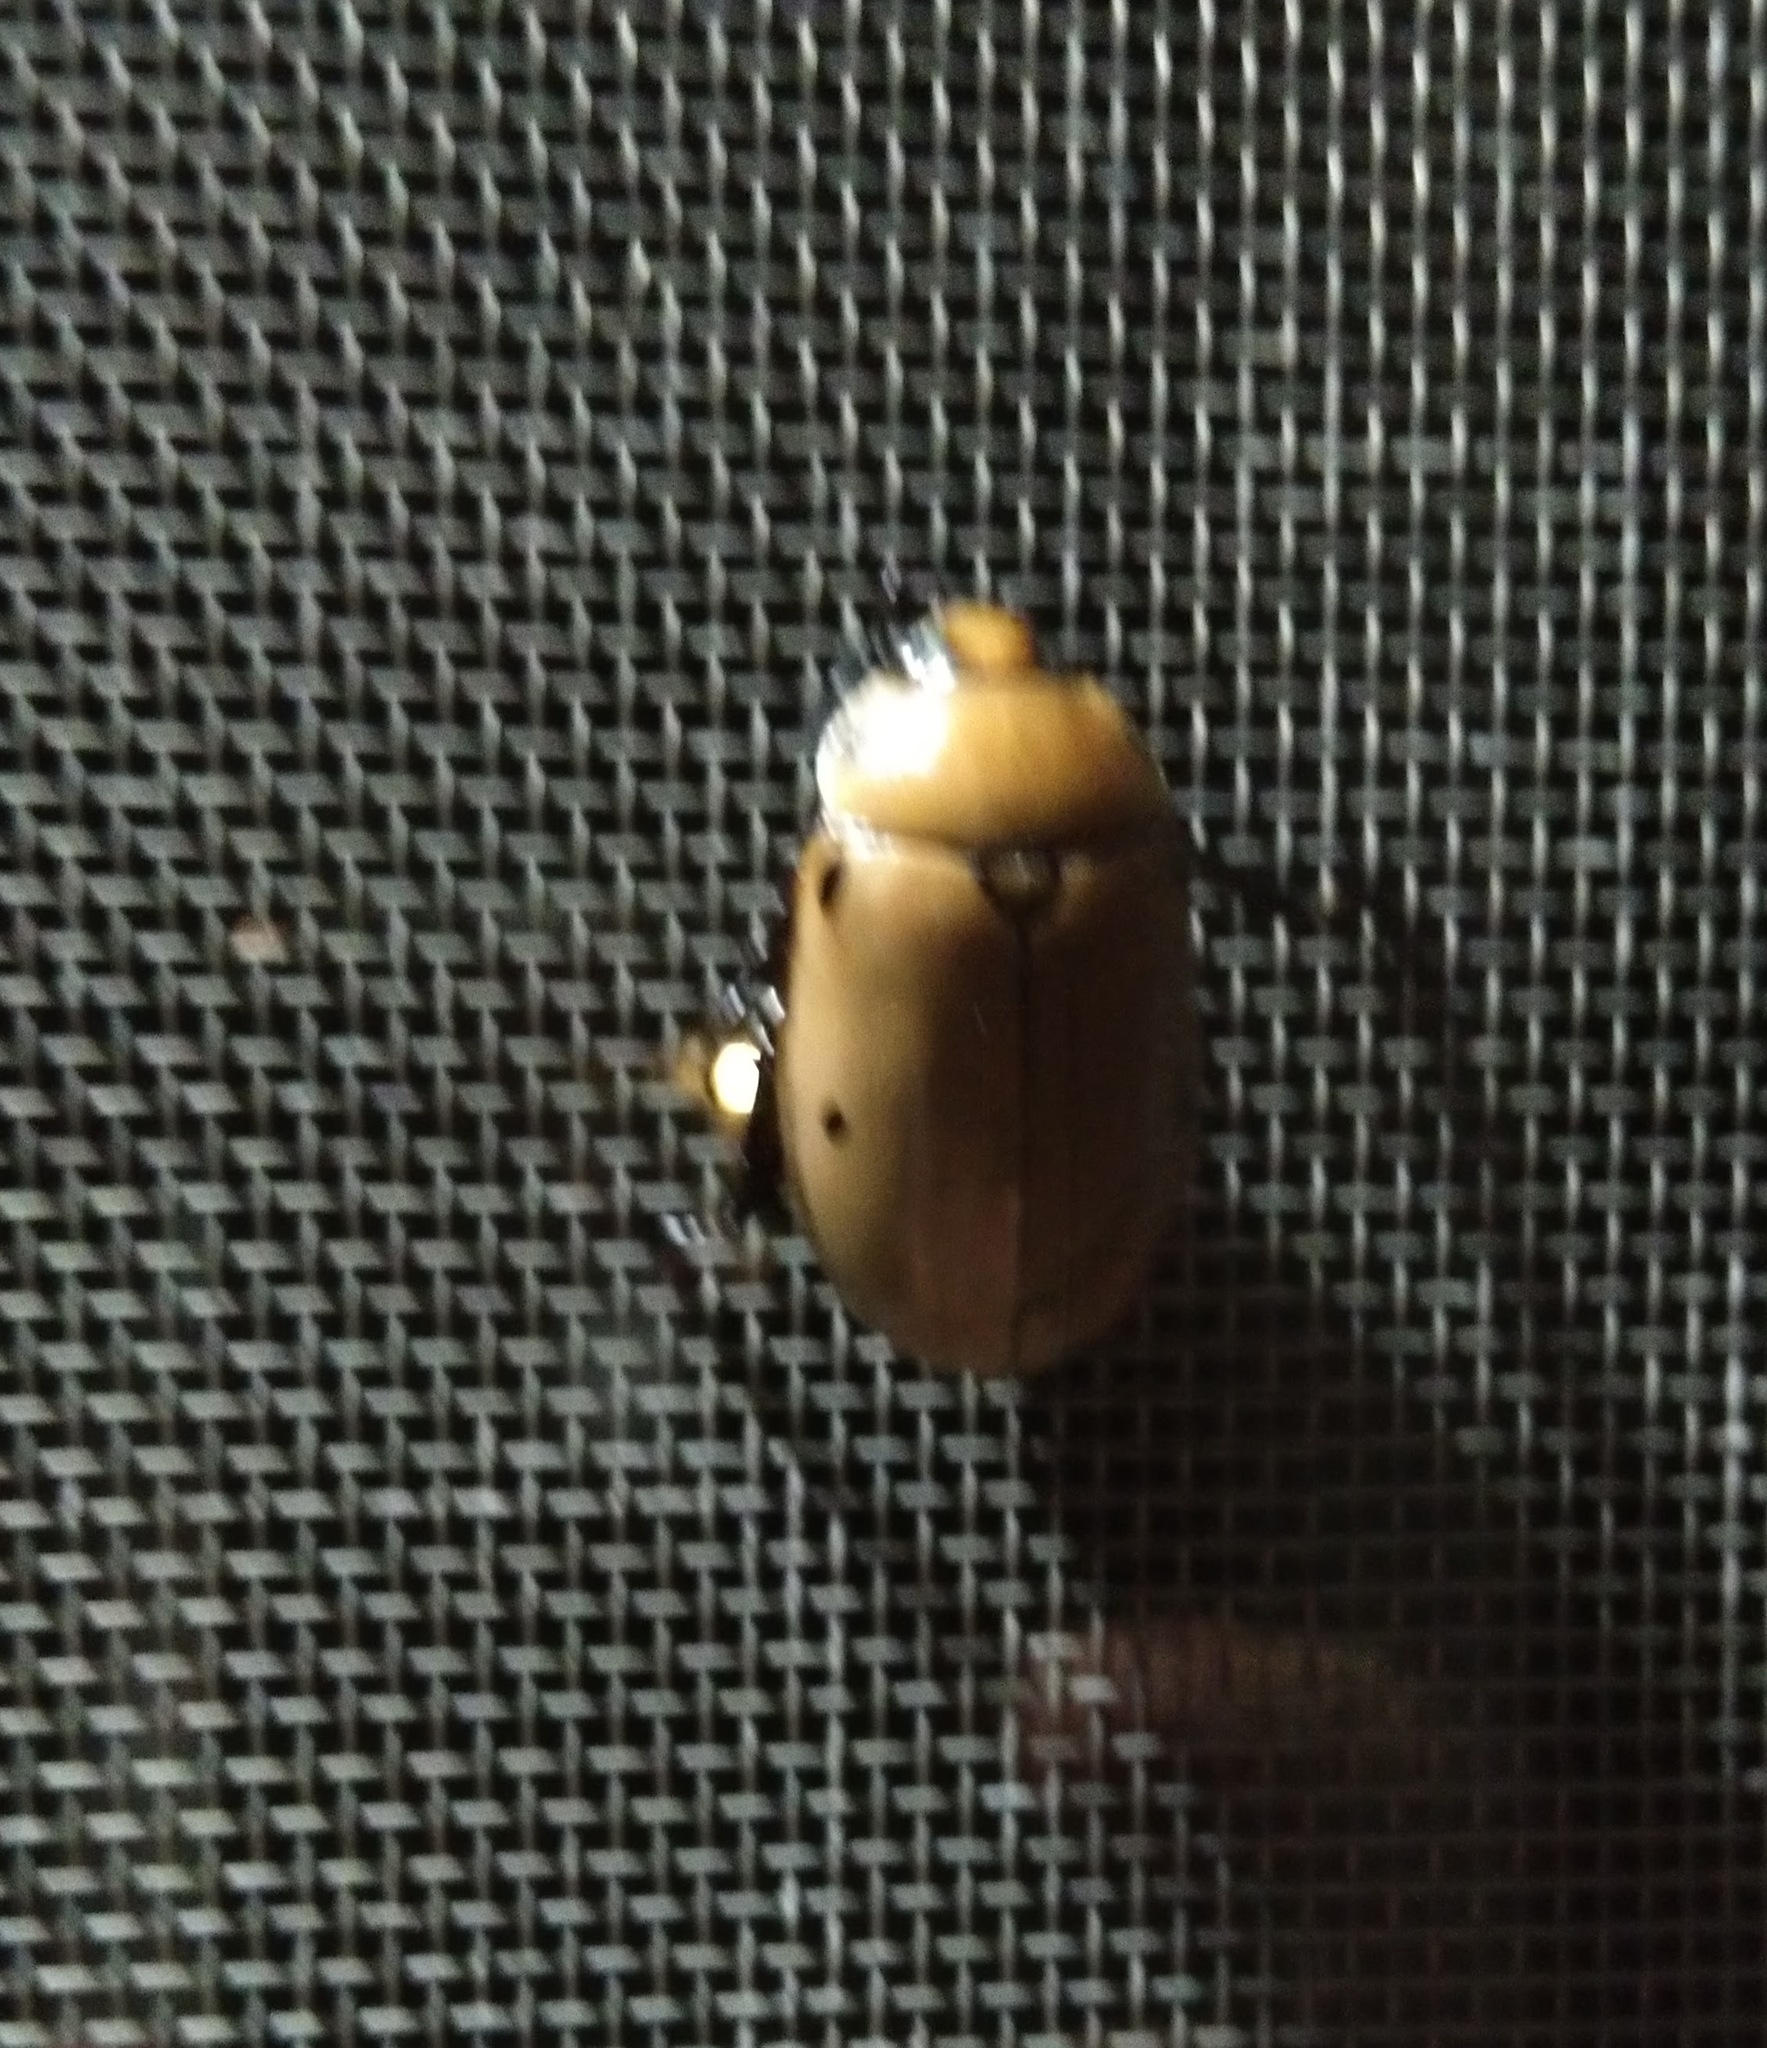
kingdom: Animalia
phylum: Arthropoda
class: Insecta
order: Coleoptera
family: Scarabaeidae
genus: Pelidnota
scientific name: Pelidnota punctata
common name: Grapevine beetle
